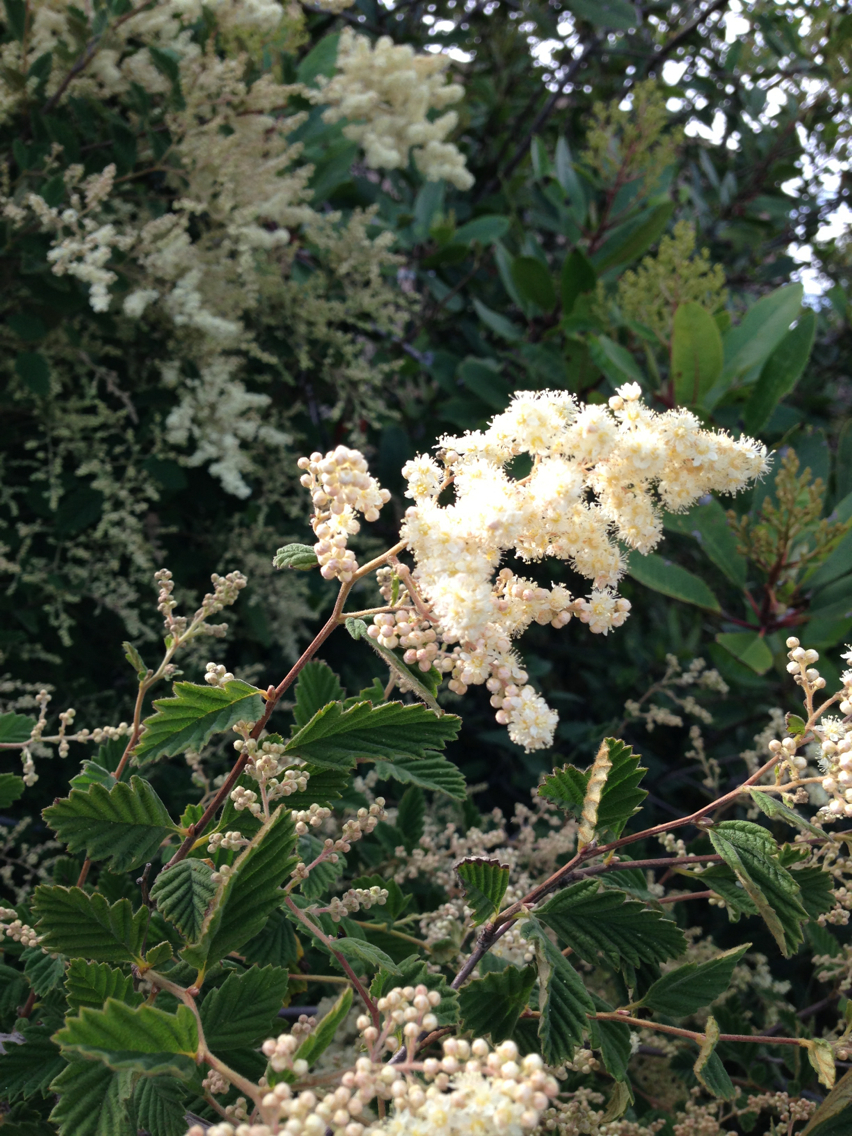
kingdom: Plantae
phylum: Tracheophyta
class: Magnoliopsida
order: Rosales
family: Rosaceae
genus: Holodiscus
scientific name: Holodiscus discolor
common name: Oceanspray
